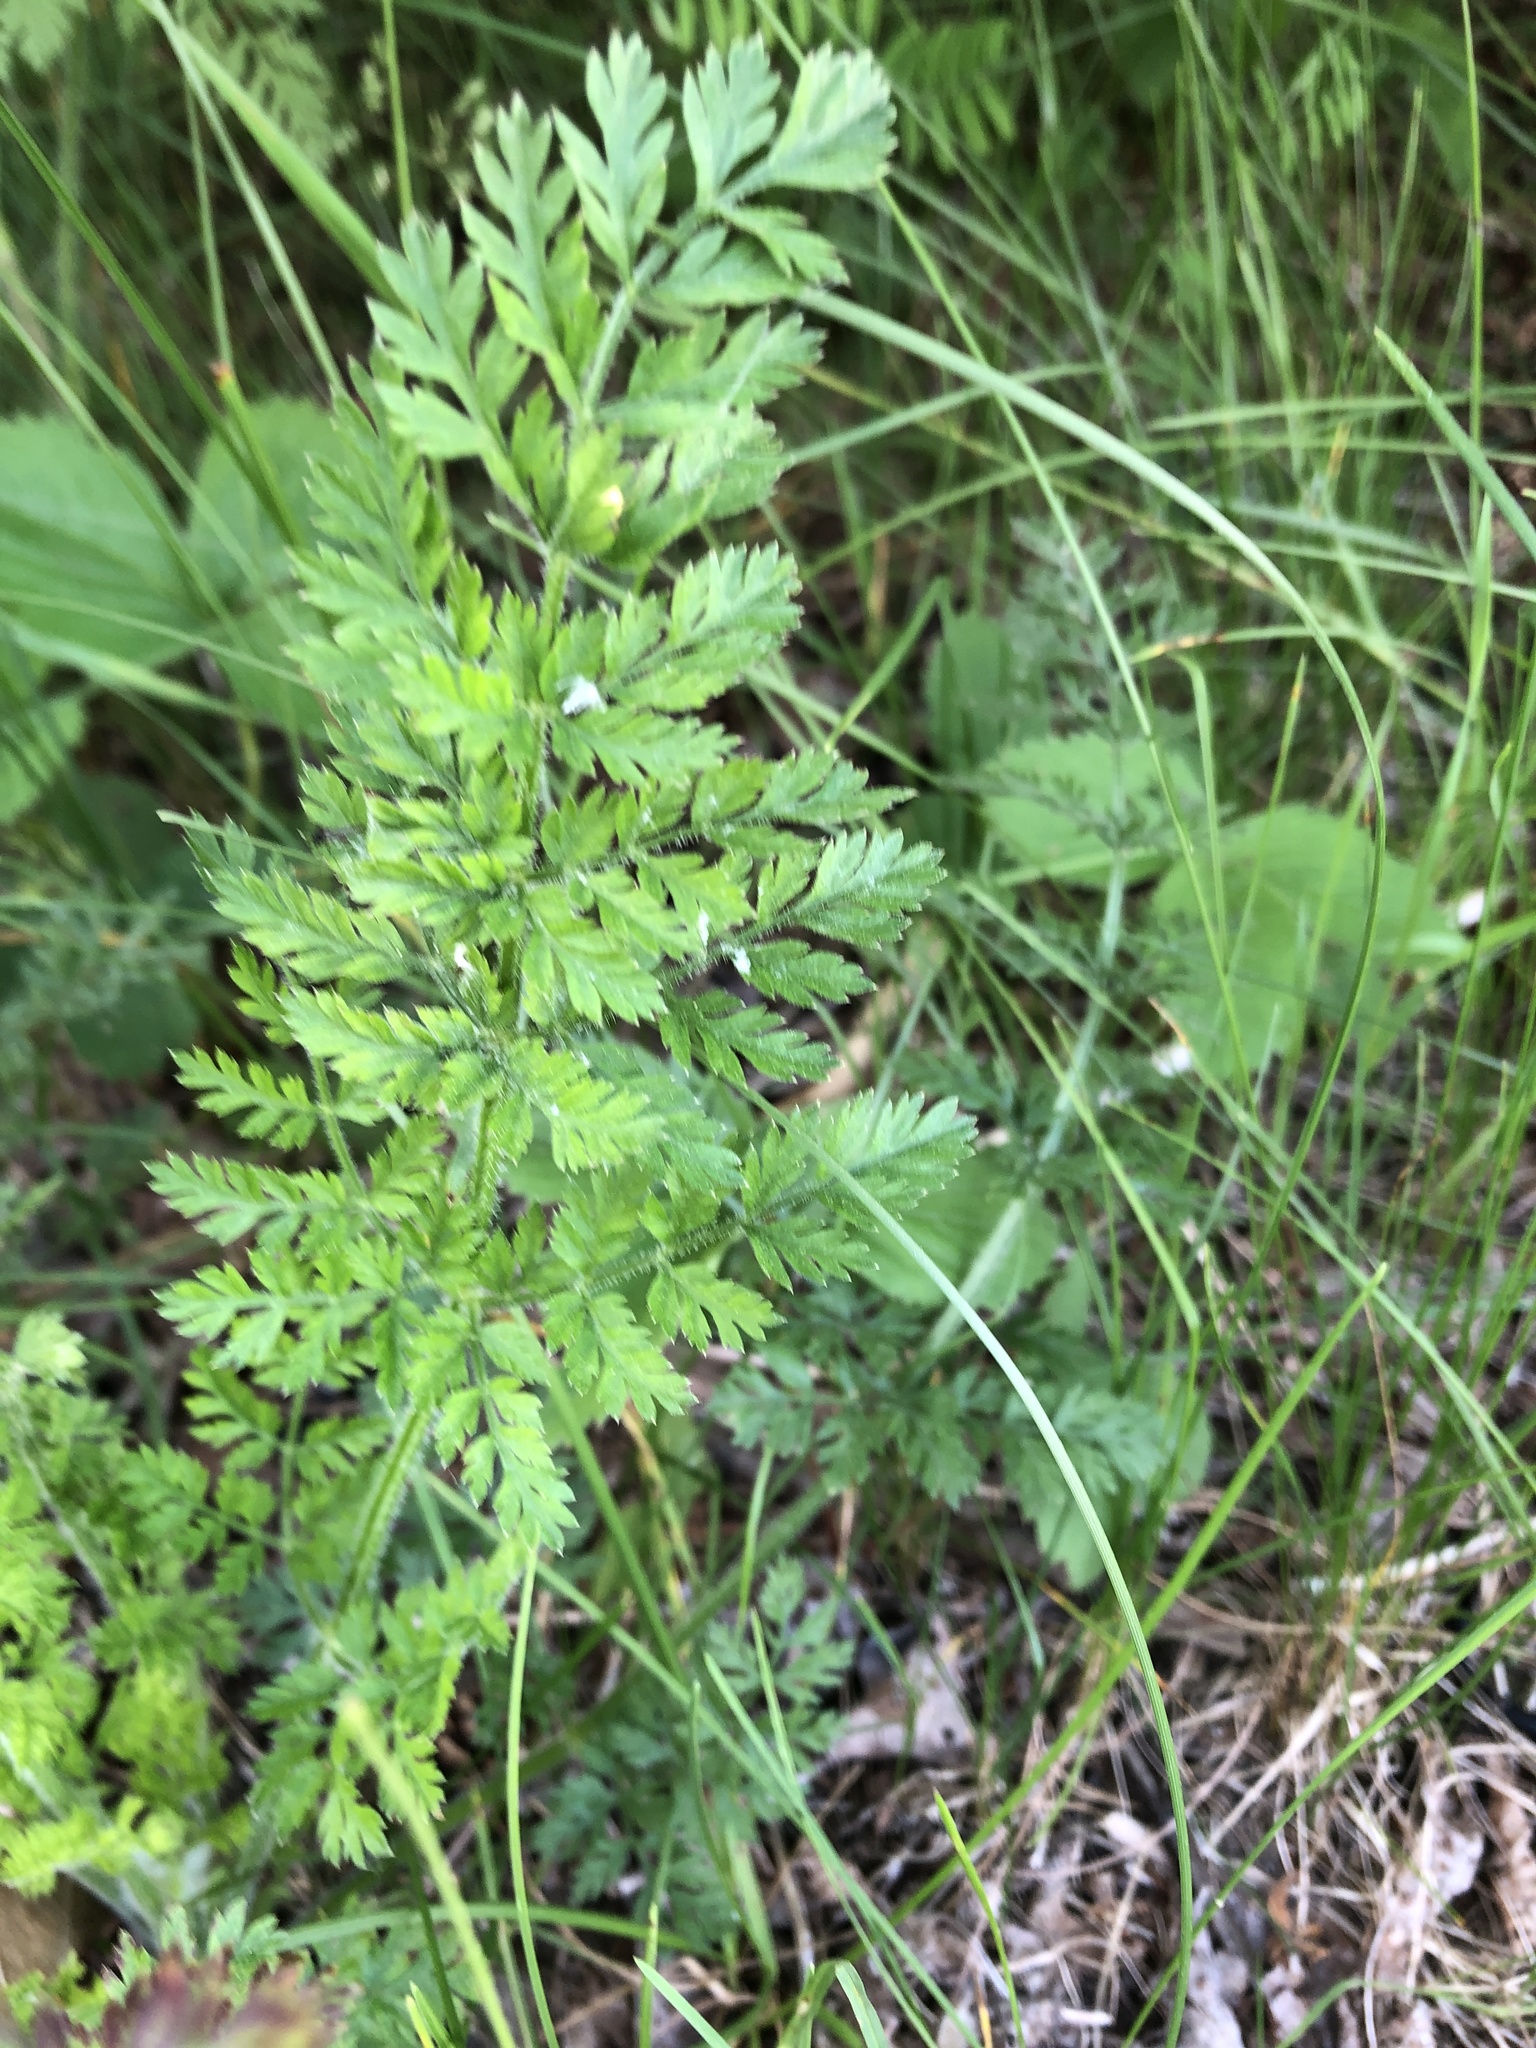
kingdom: Plantae
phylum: Tracheophyta
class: Magnoliopsida
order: Apiales
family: Apiaceae
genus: Daucus
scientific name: Daucus carota
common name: Wild carrot
